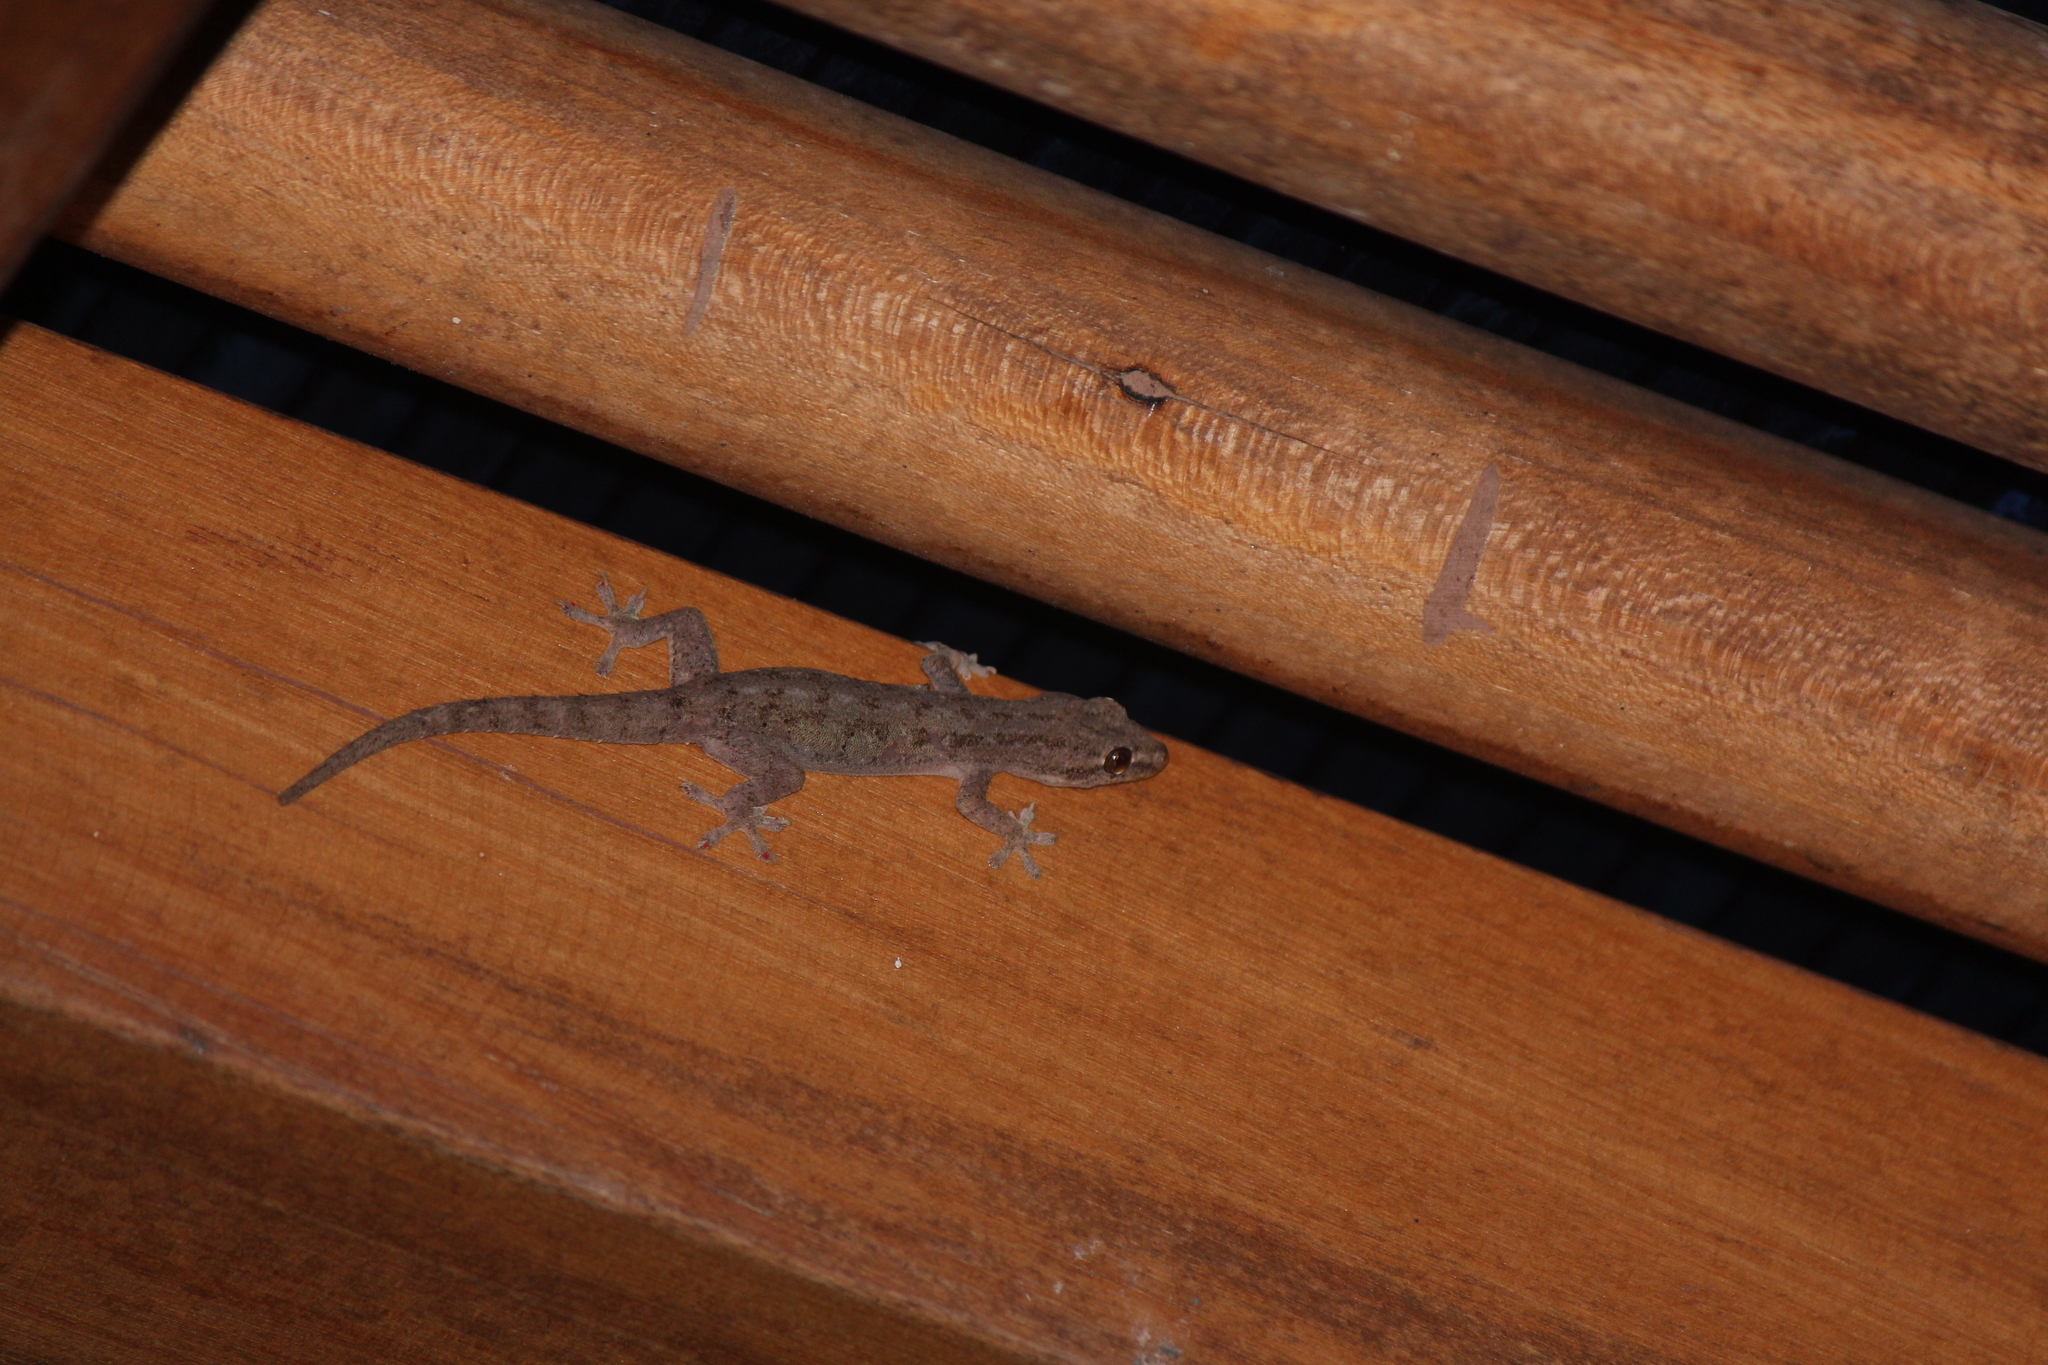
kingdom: Animalia
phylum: Chordata
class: Squamata
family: Gekkonidae
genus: Hemidactylus
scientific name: Hemidactylus frenatus
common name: Common house gecko
